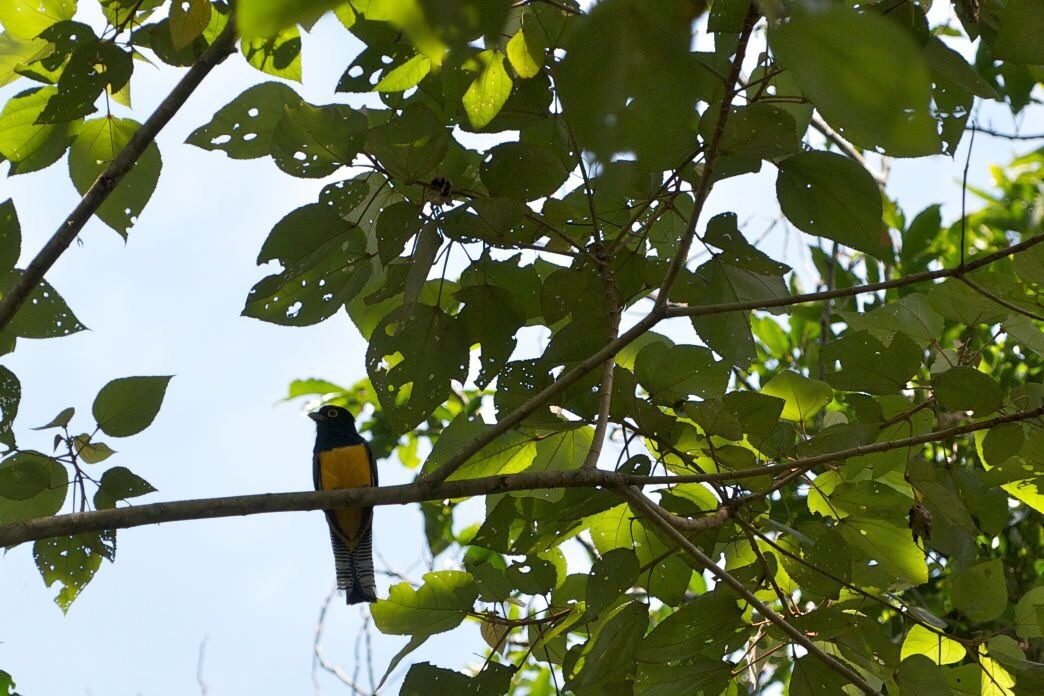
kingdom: Animalia
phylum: Chordata
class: Aves
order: Trogoniformes
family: Trogonidae
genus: Trogon
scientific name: Trogon caligatus
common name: Gartered trogon
